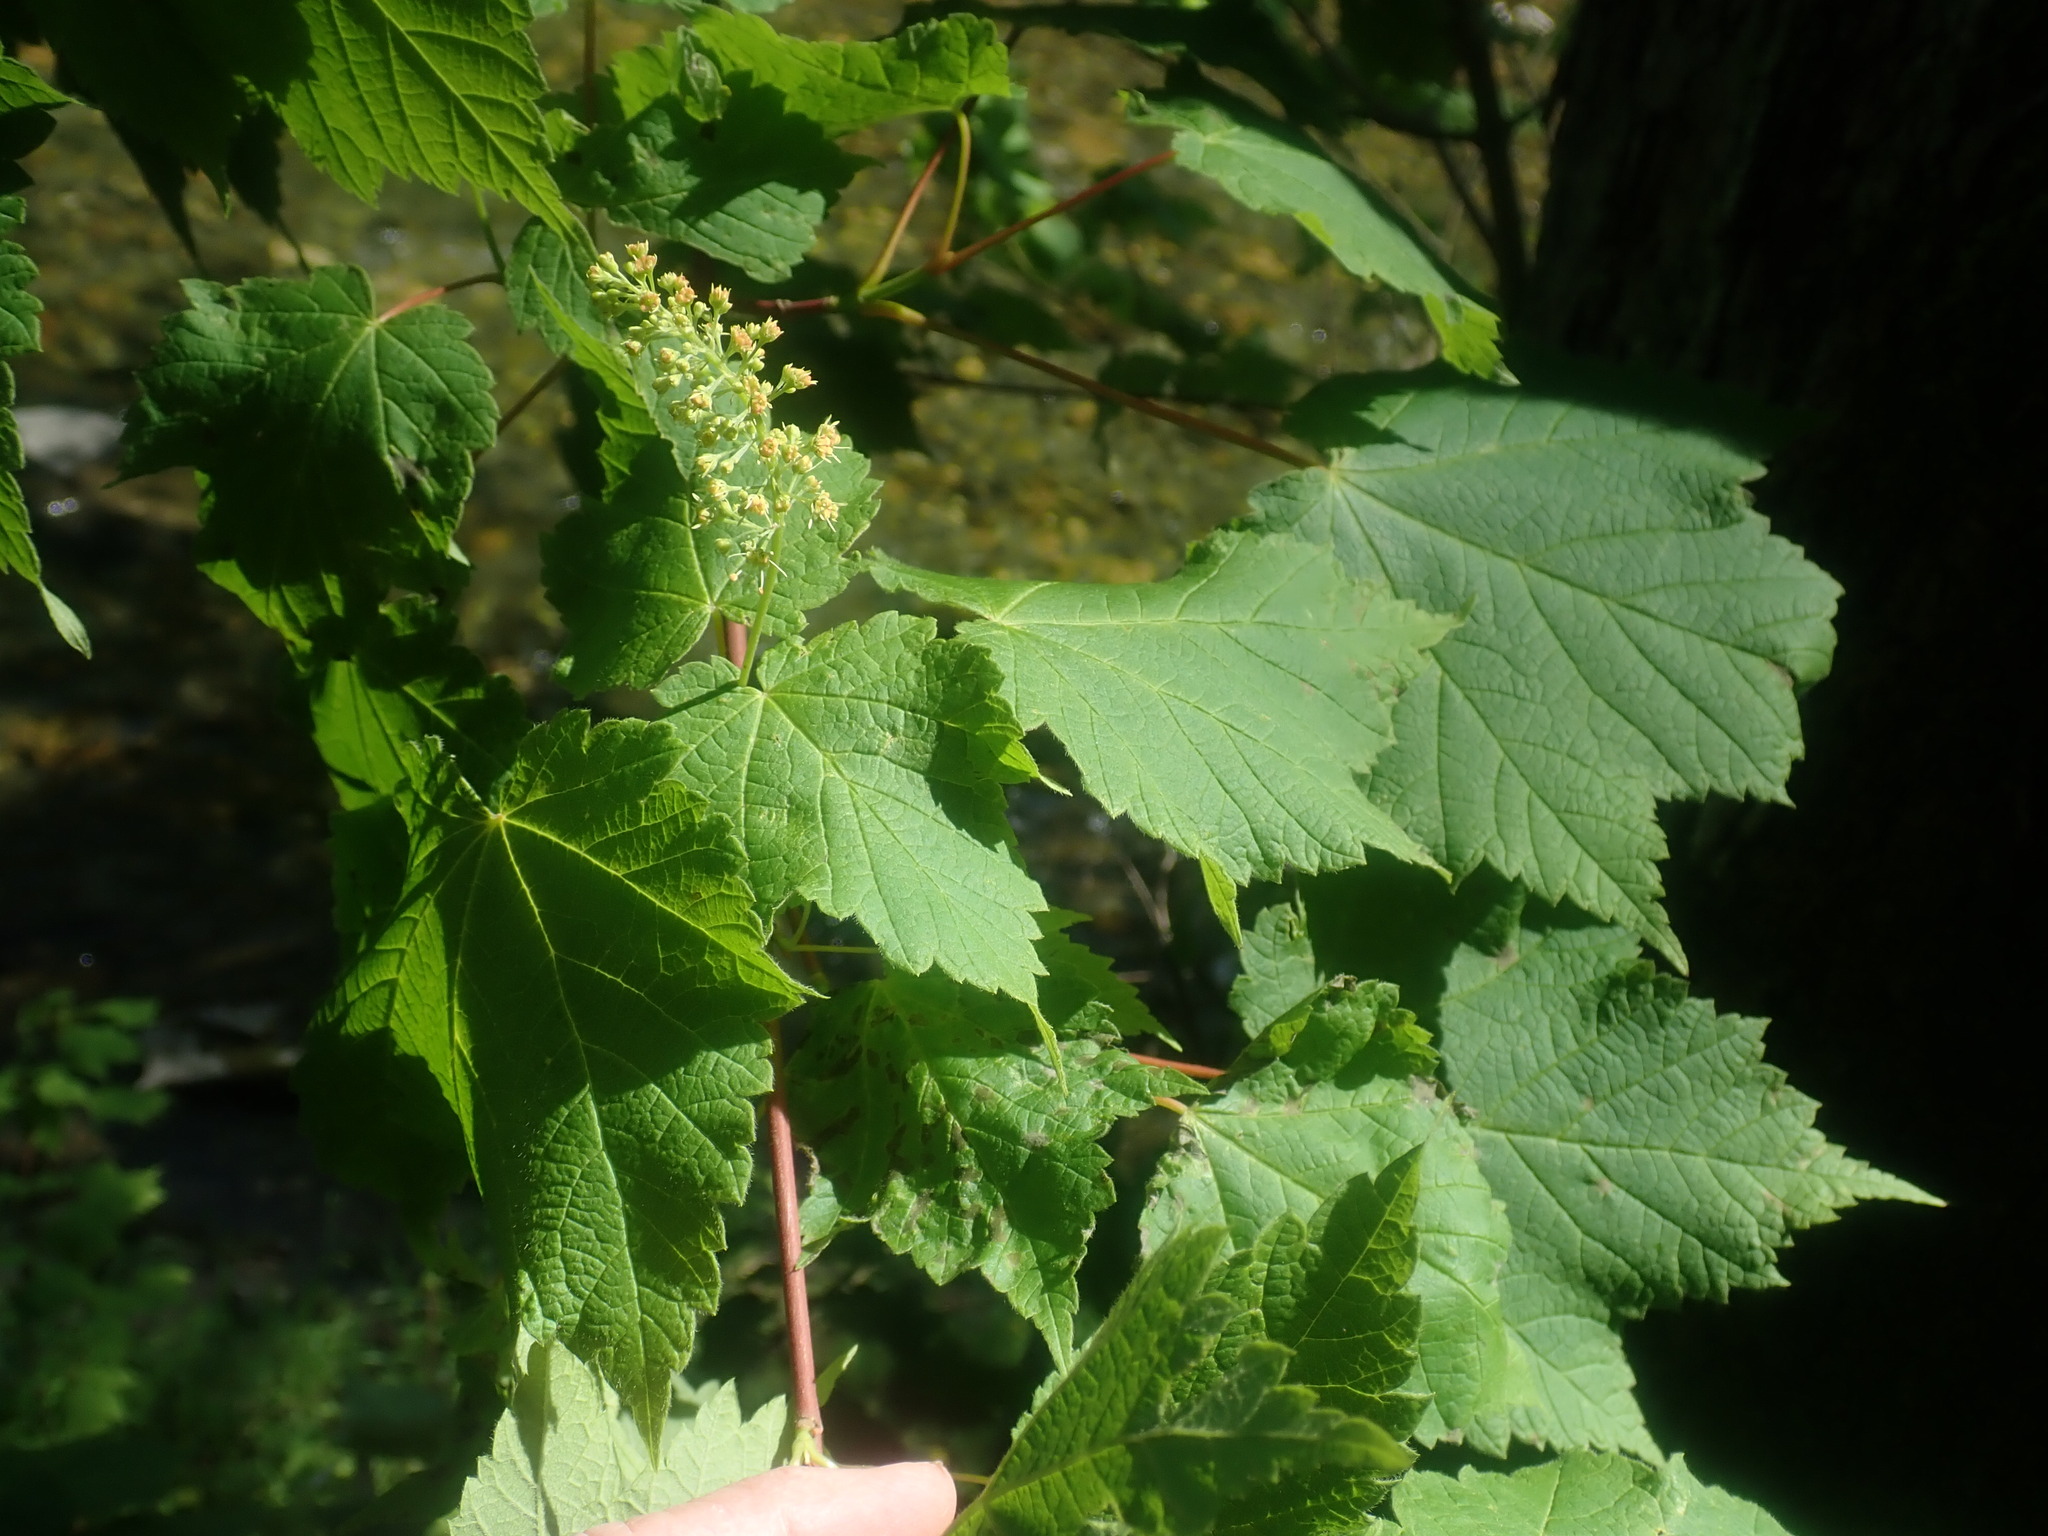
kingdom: Plantae
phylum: Tracheophyta
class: Magnoliopsida
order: Sapindales
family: Sapindaceae
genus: Acer
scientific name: Acer spicatum
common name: Mountain maple
